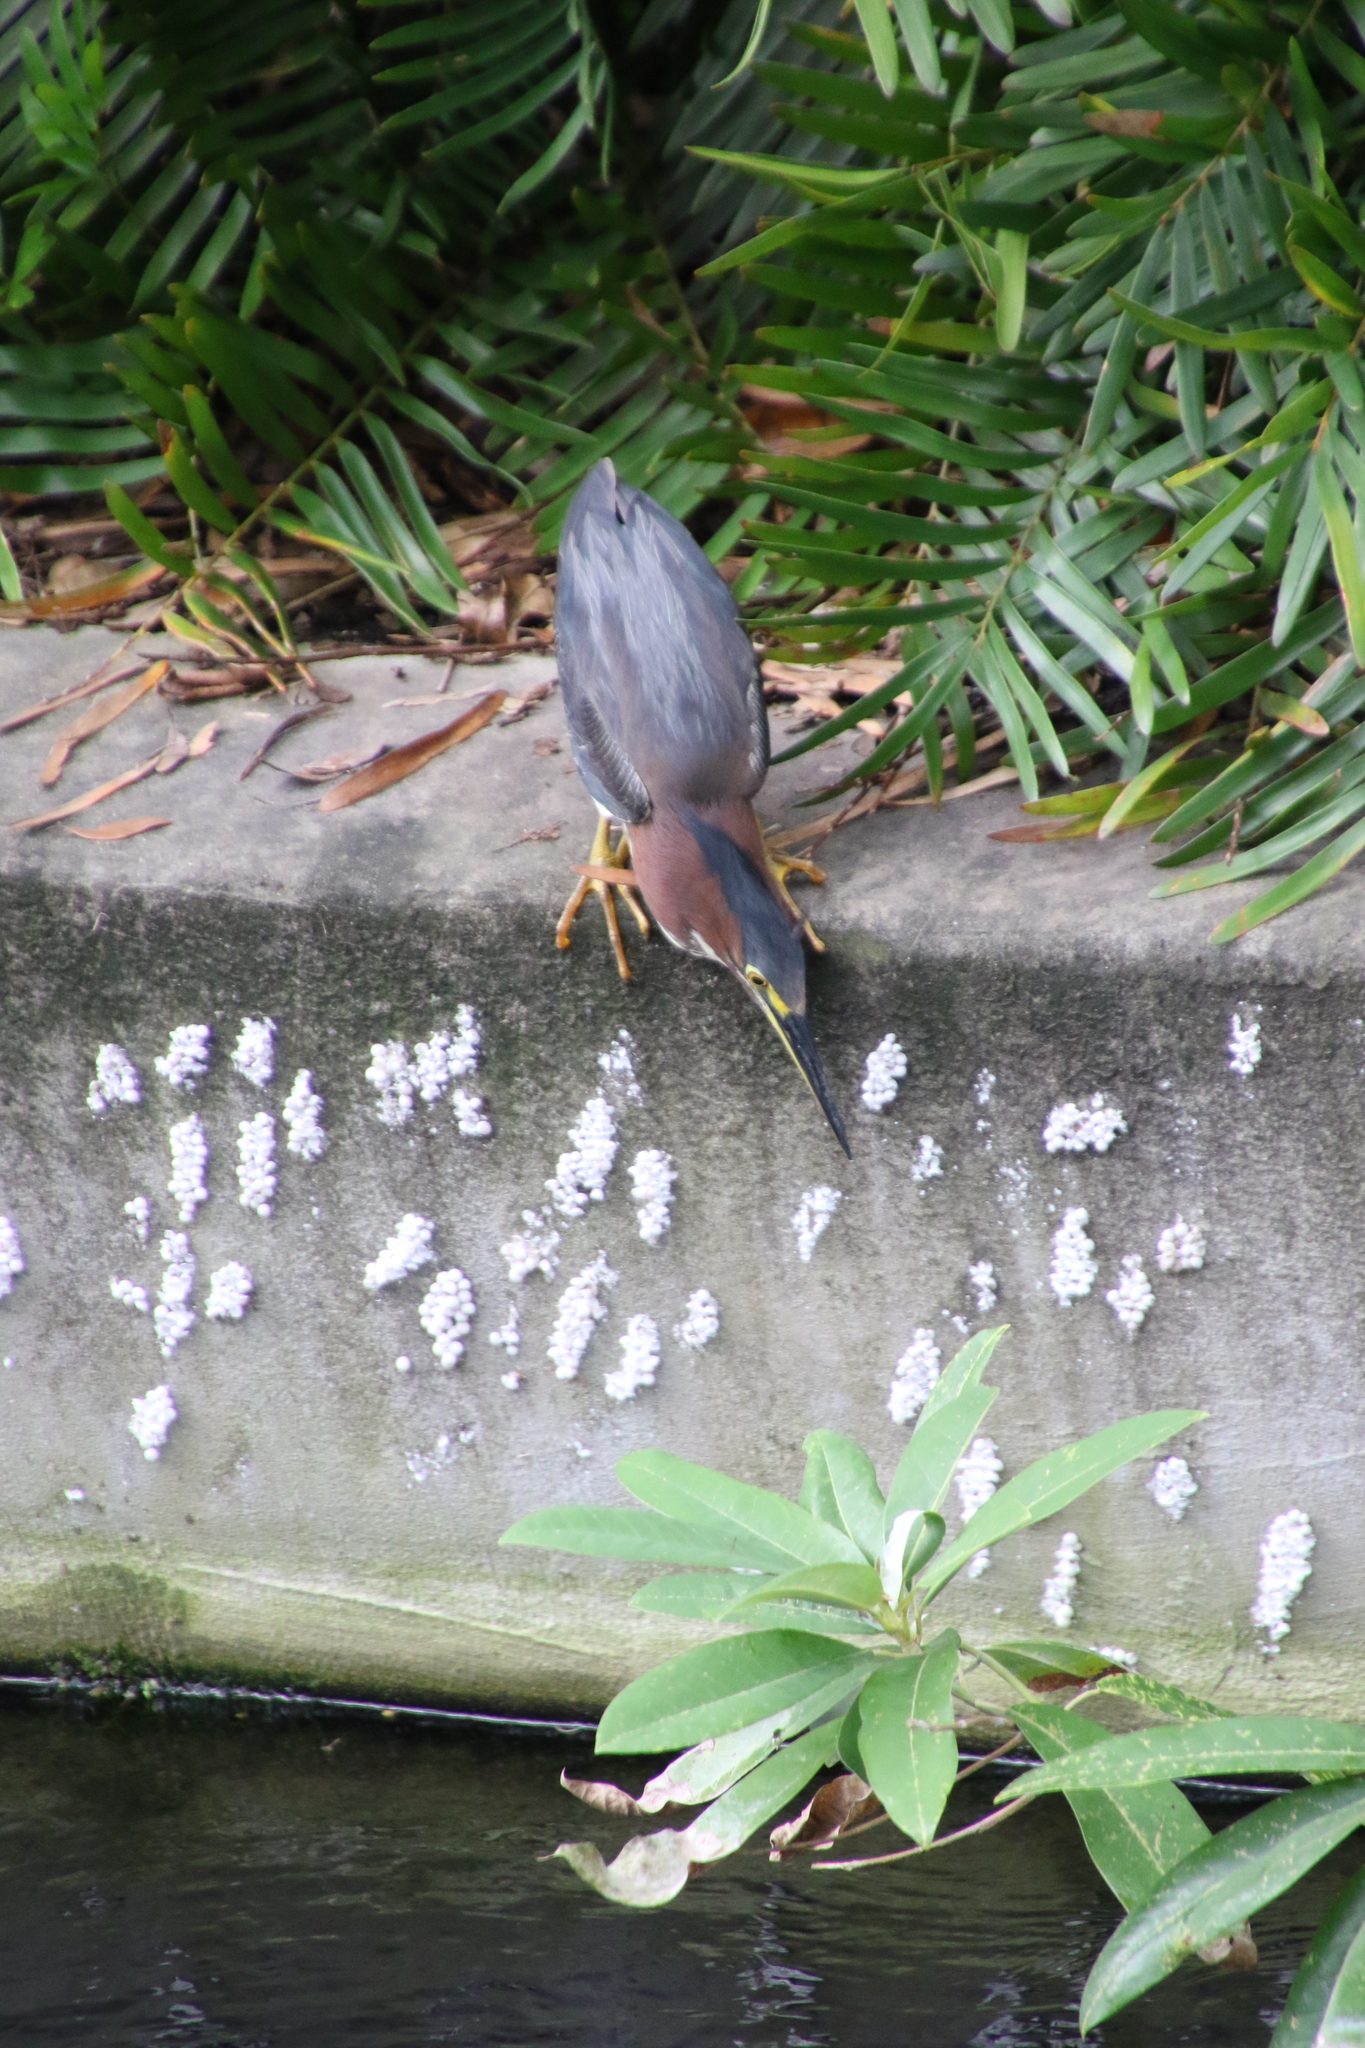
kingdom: Animalia
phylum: Chordata
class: Aves
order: Pelecaniformes
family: Ardeidae
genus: Butorides
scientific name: Butorides virescens
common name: Green heron
